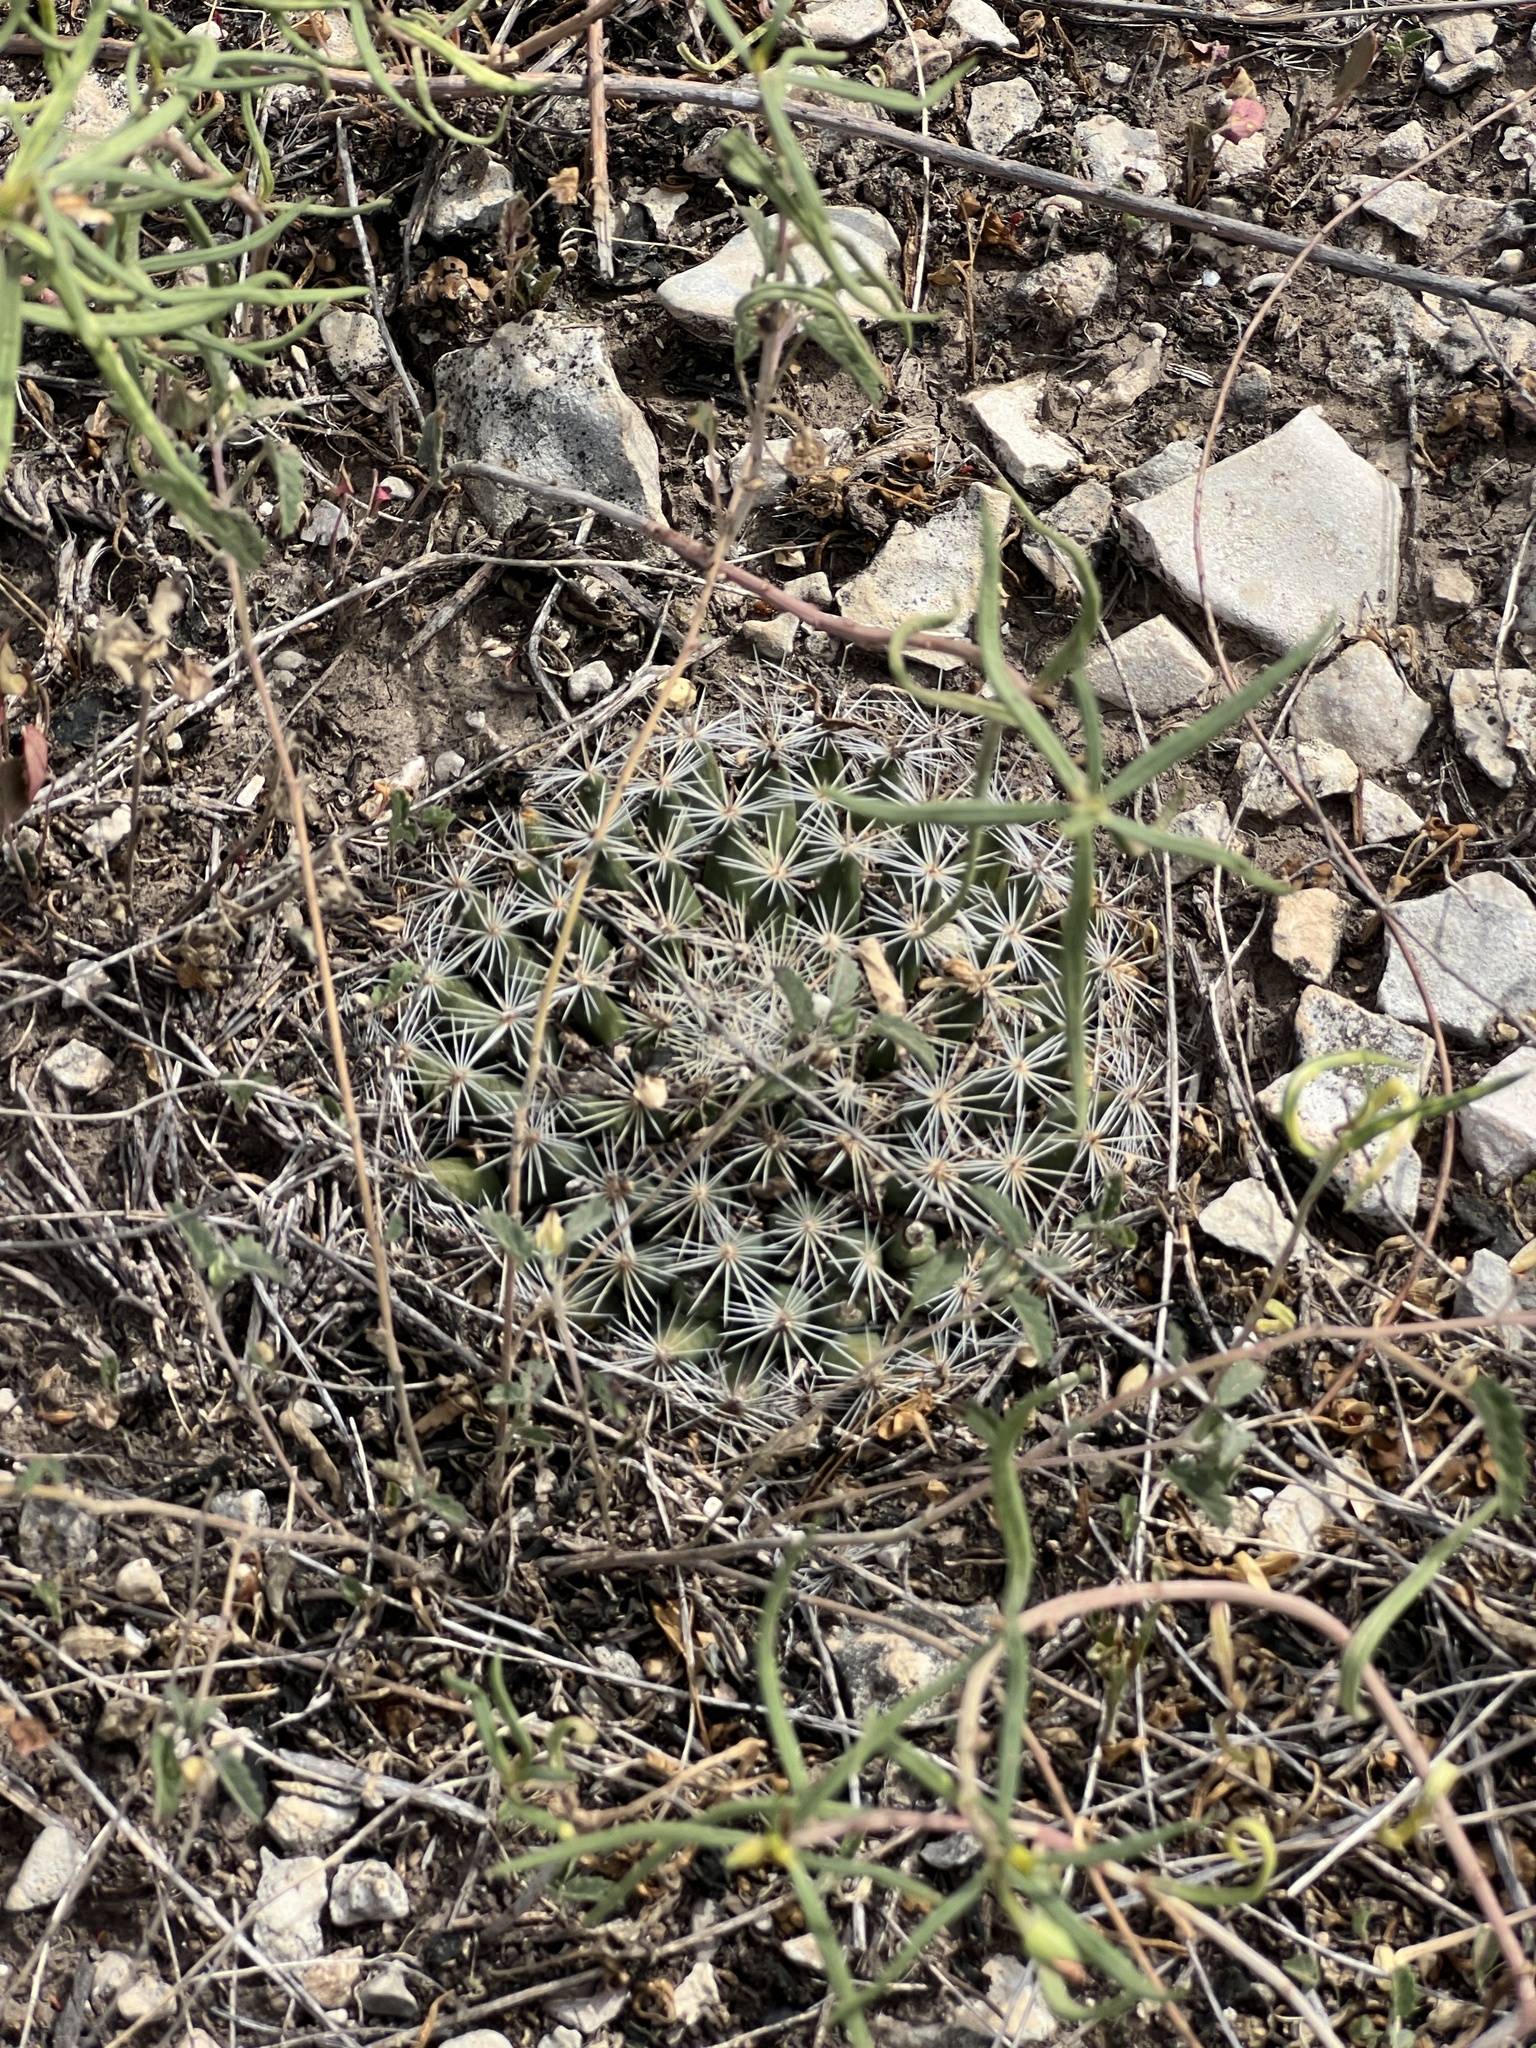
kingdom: Plantae
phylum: Tracheophyta
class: Magnoliopsida
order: Caryophyllales
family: Cactaceae
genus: Mammillaria
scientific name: Mammillaria heyderi
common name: Little nipple cactus
